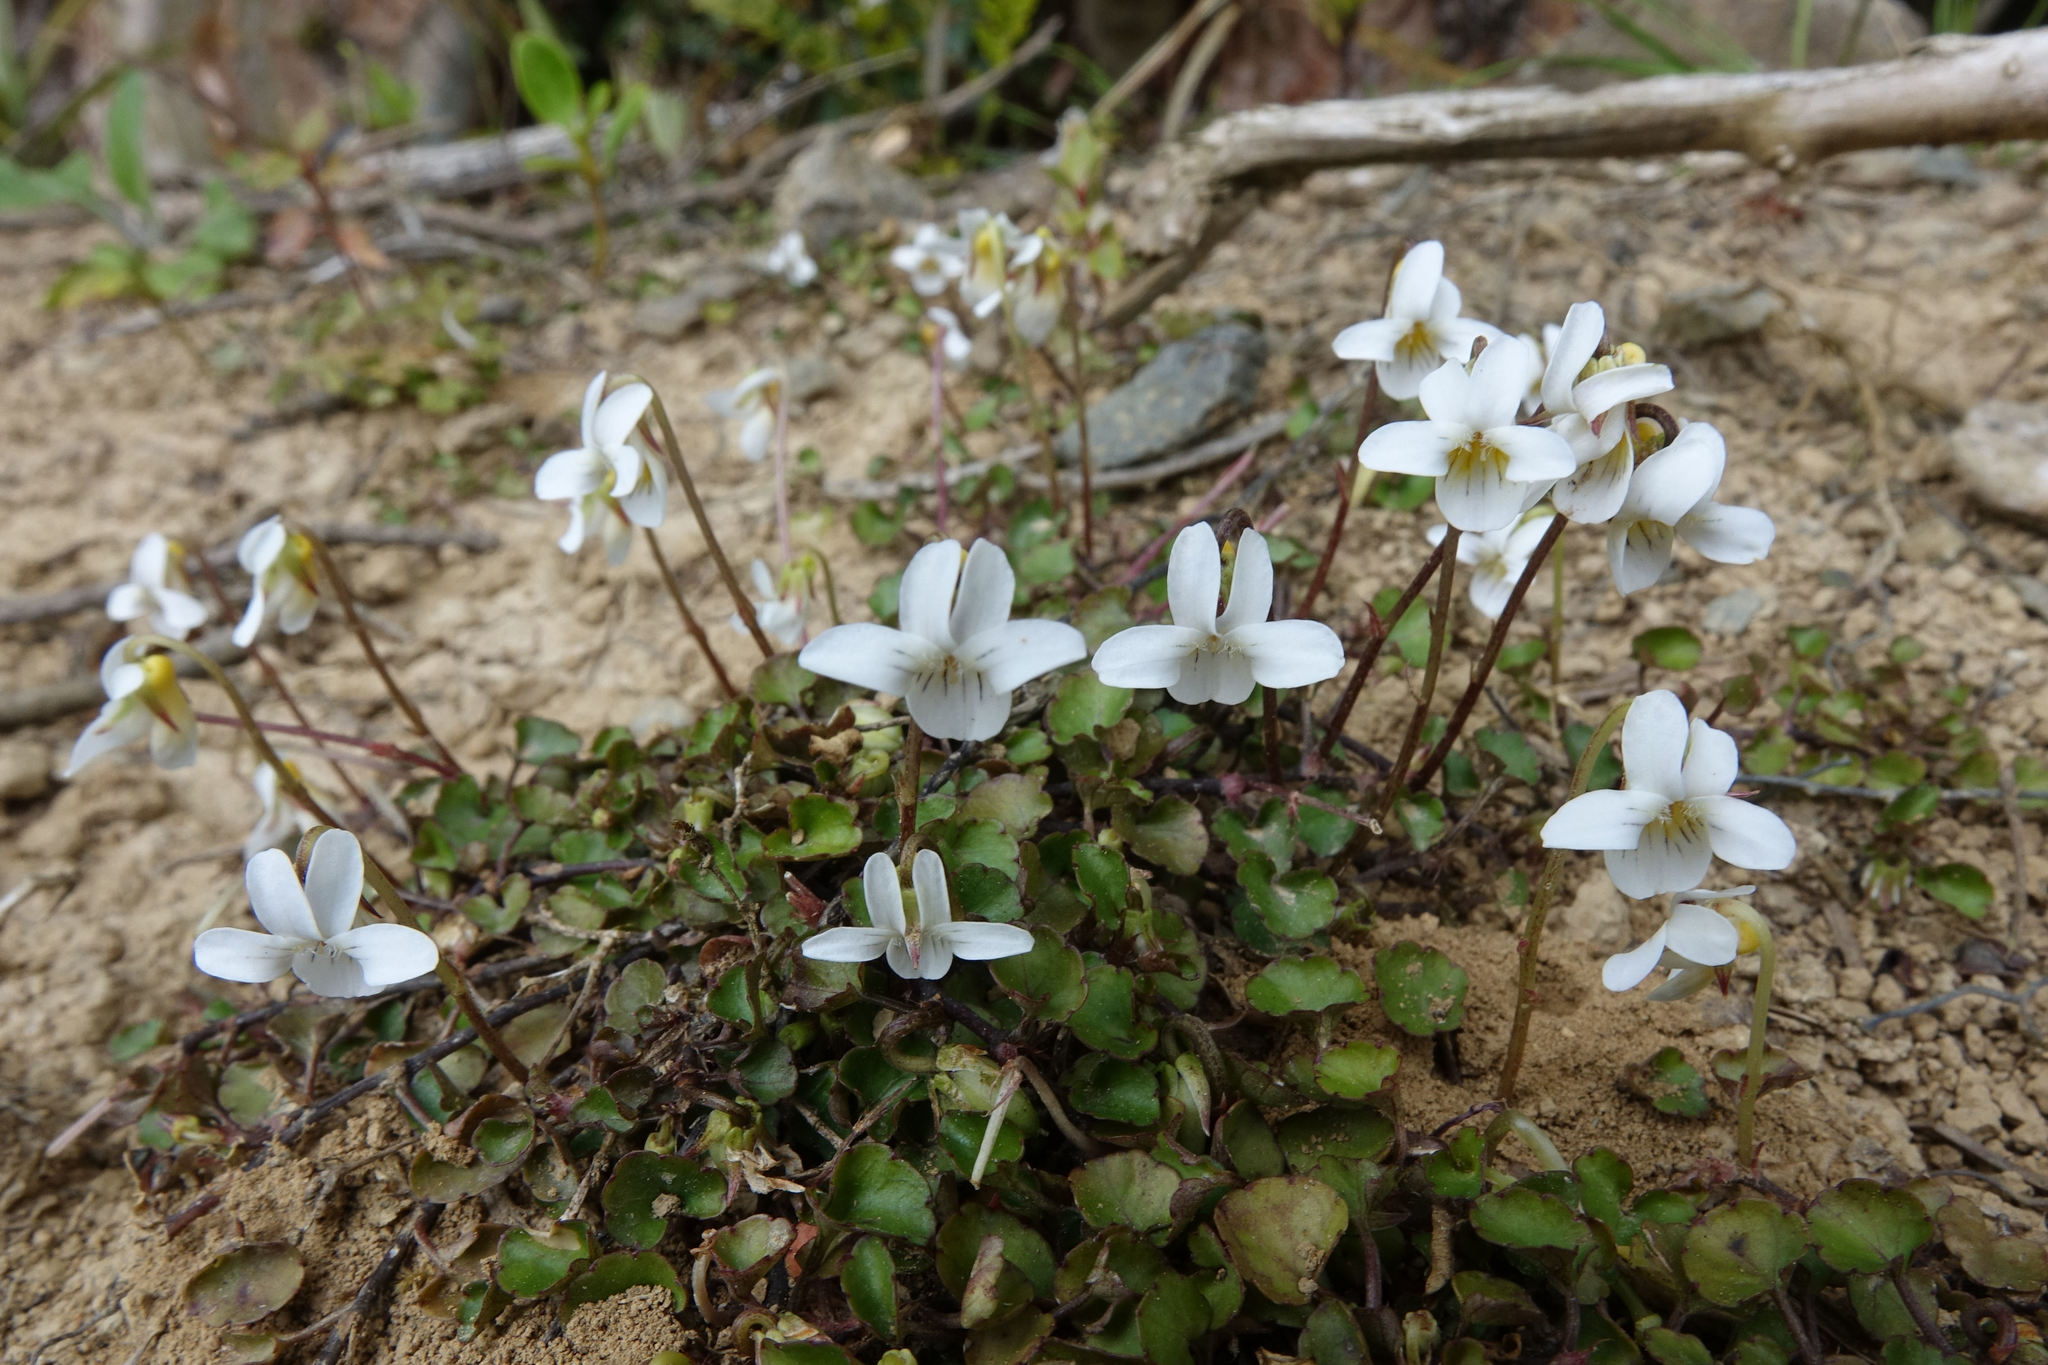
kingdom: Plantae
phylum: Tracheophyta
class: Magnoliopsida
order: Malpighiales
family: Violaceae
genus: Viola
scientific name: Viola filicaulis
